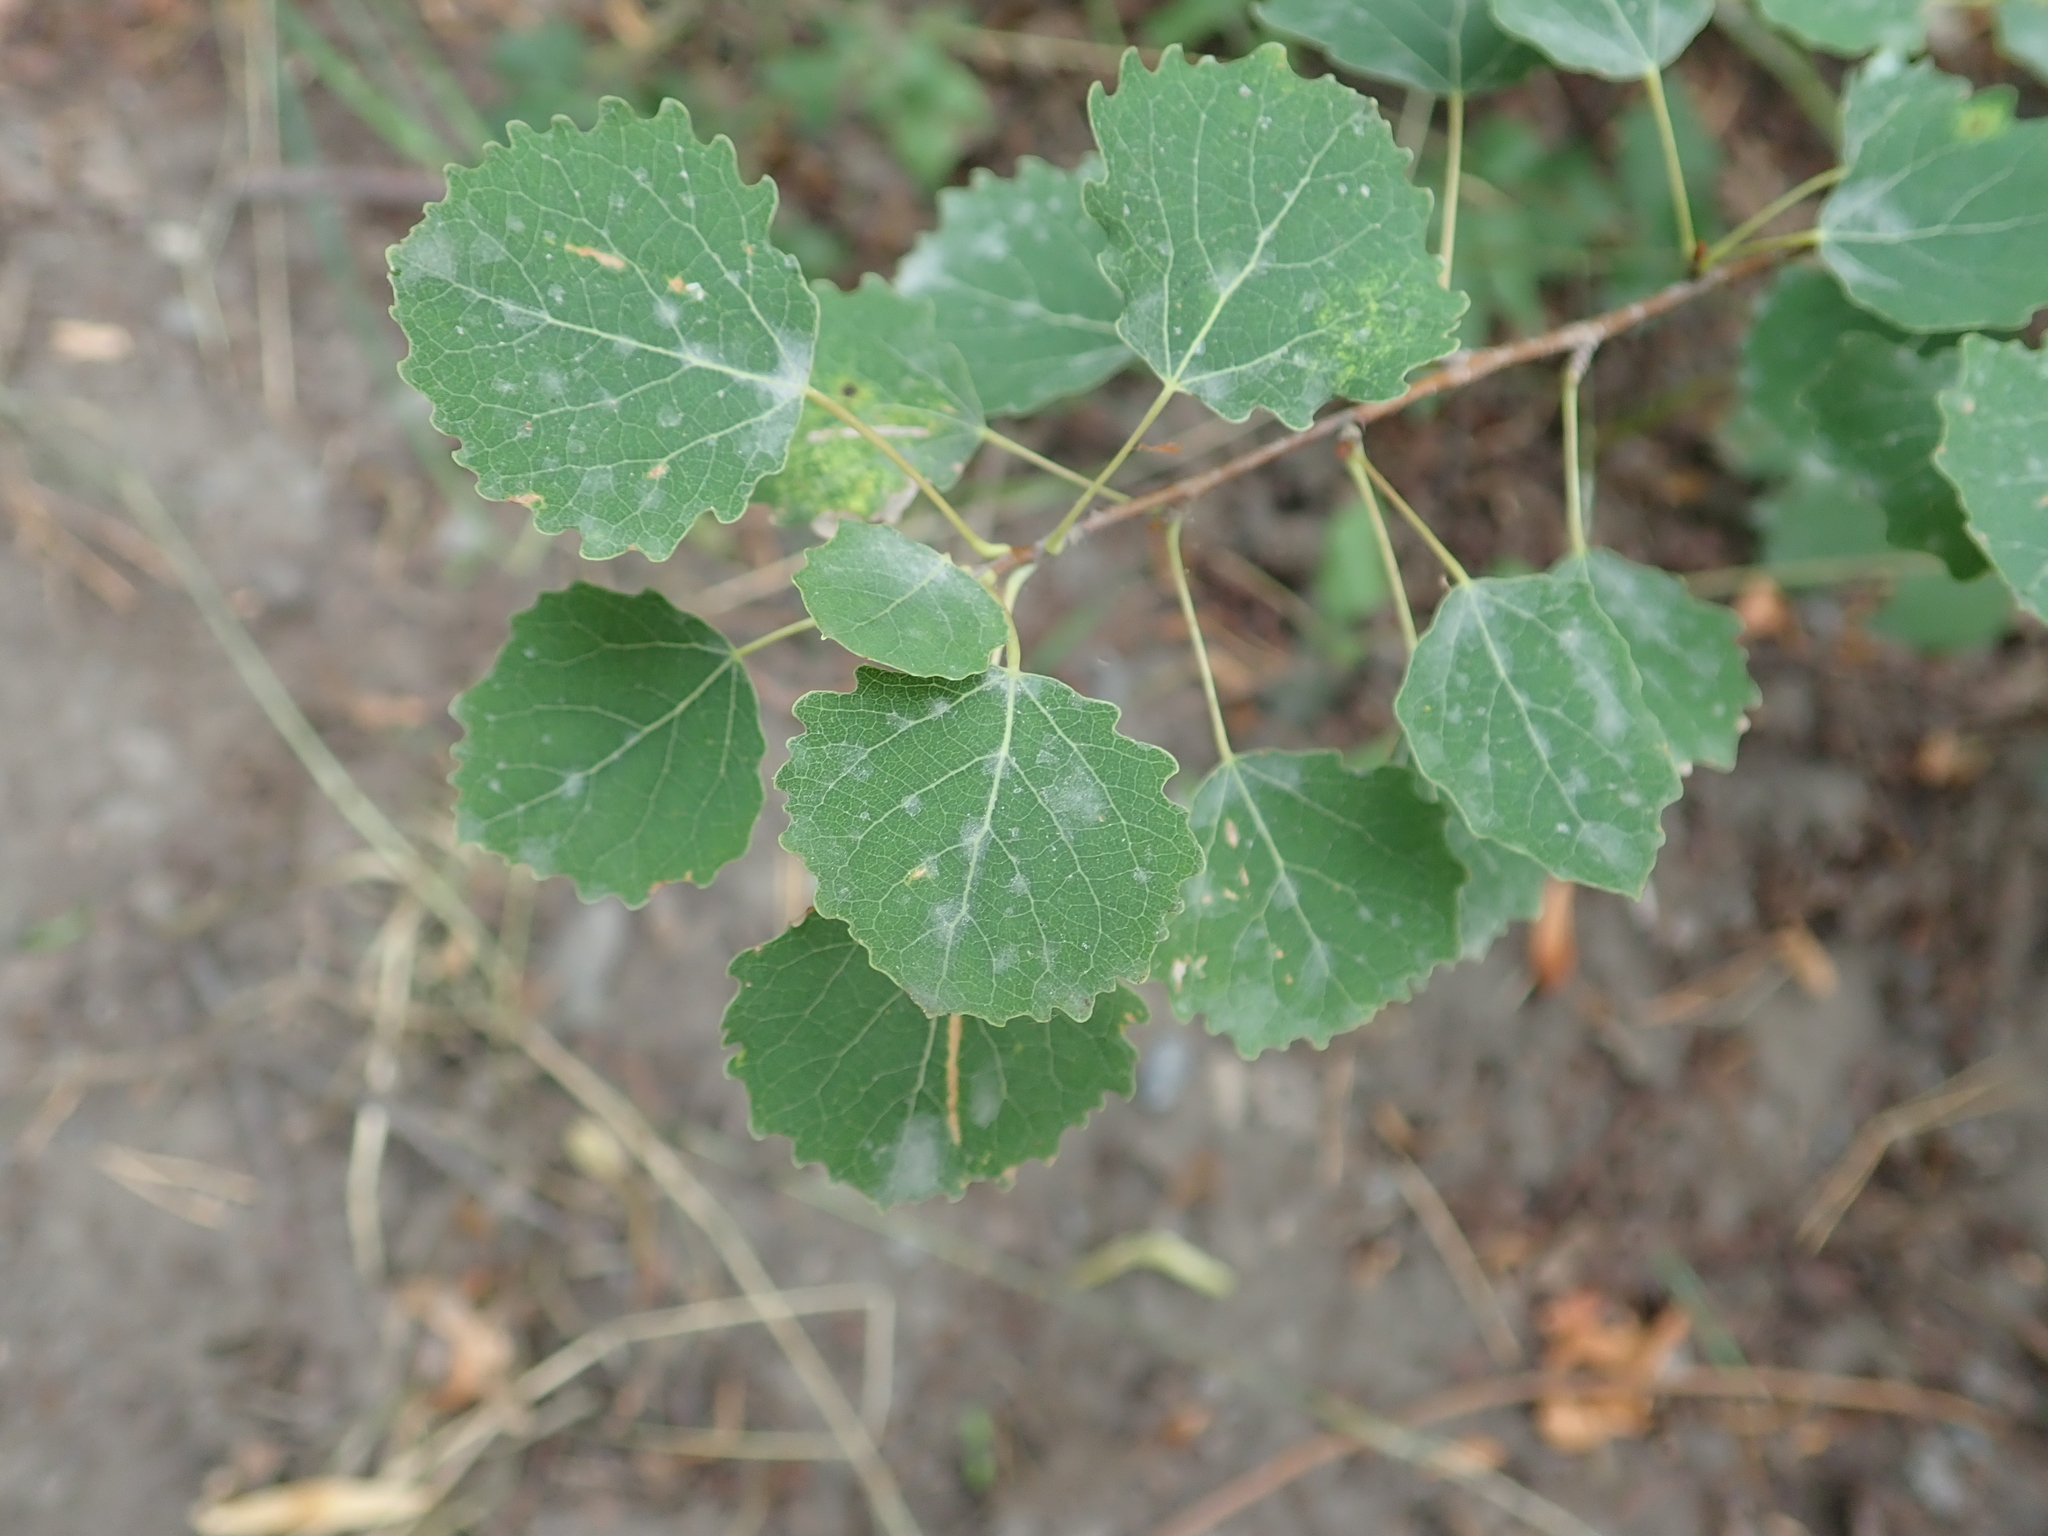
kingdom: Plantae
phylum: Tracheophyta
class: Magnoliopsida
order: Malpighiales
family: Salicaceae
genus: Populus
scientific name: Populus tremula
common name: European aspen
